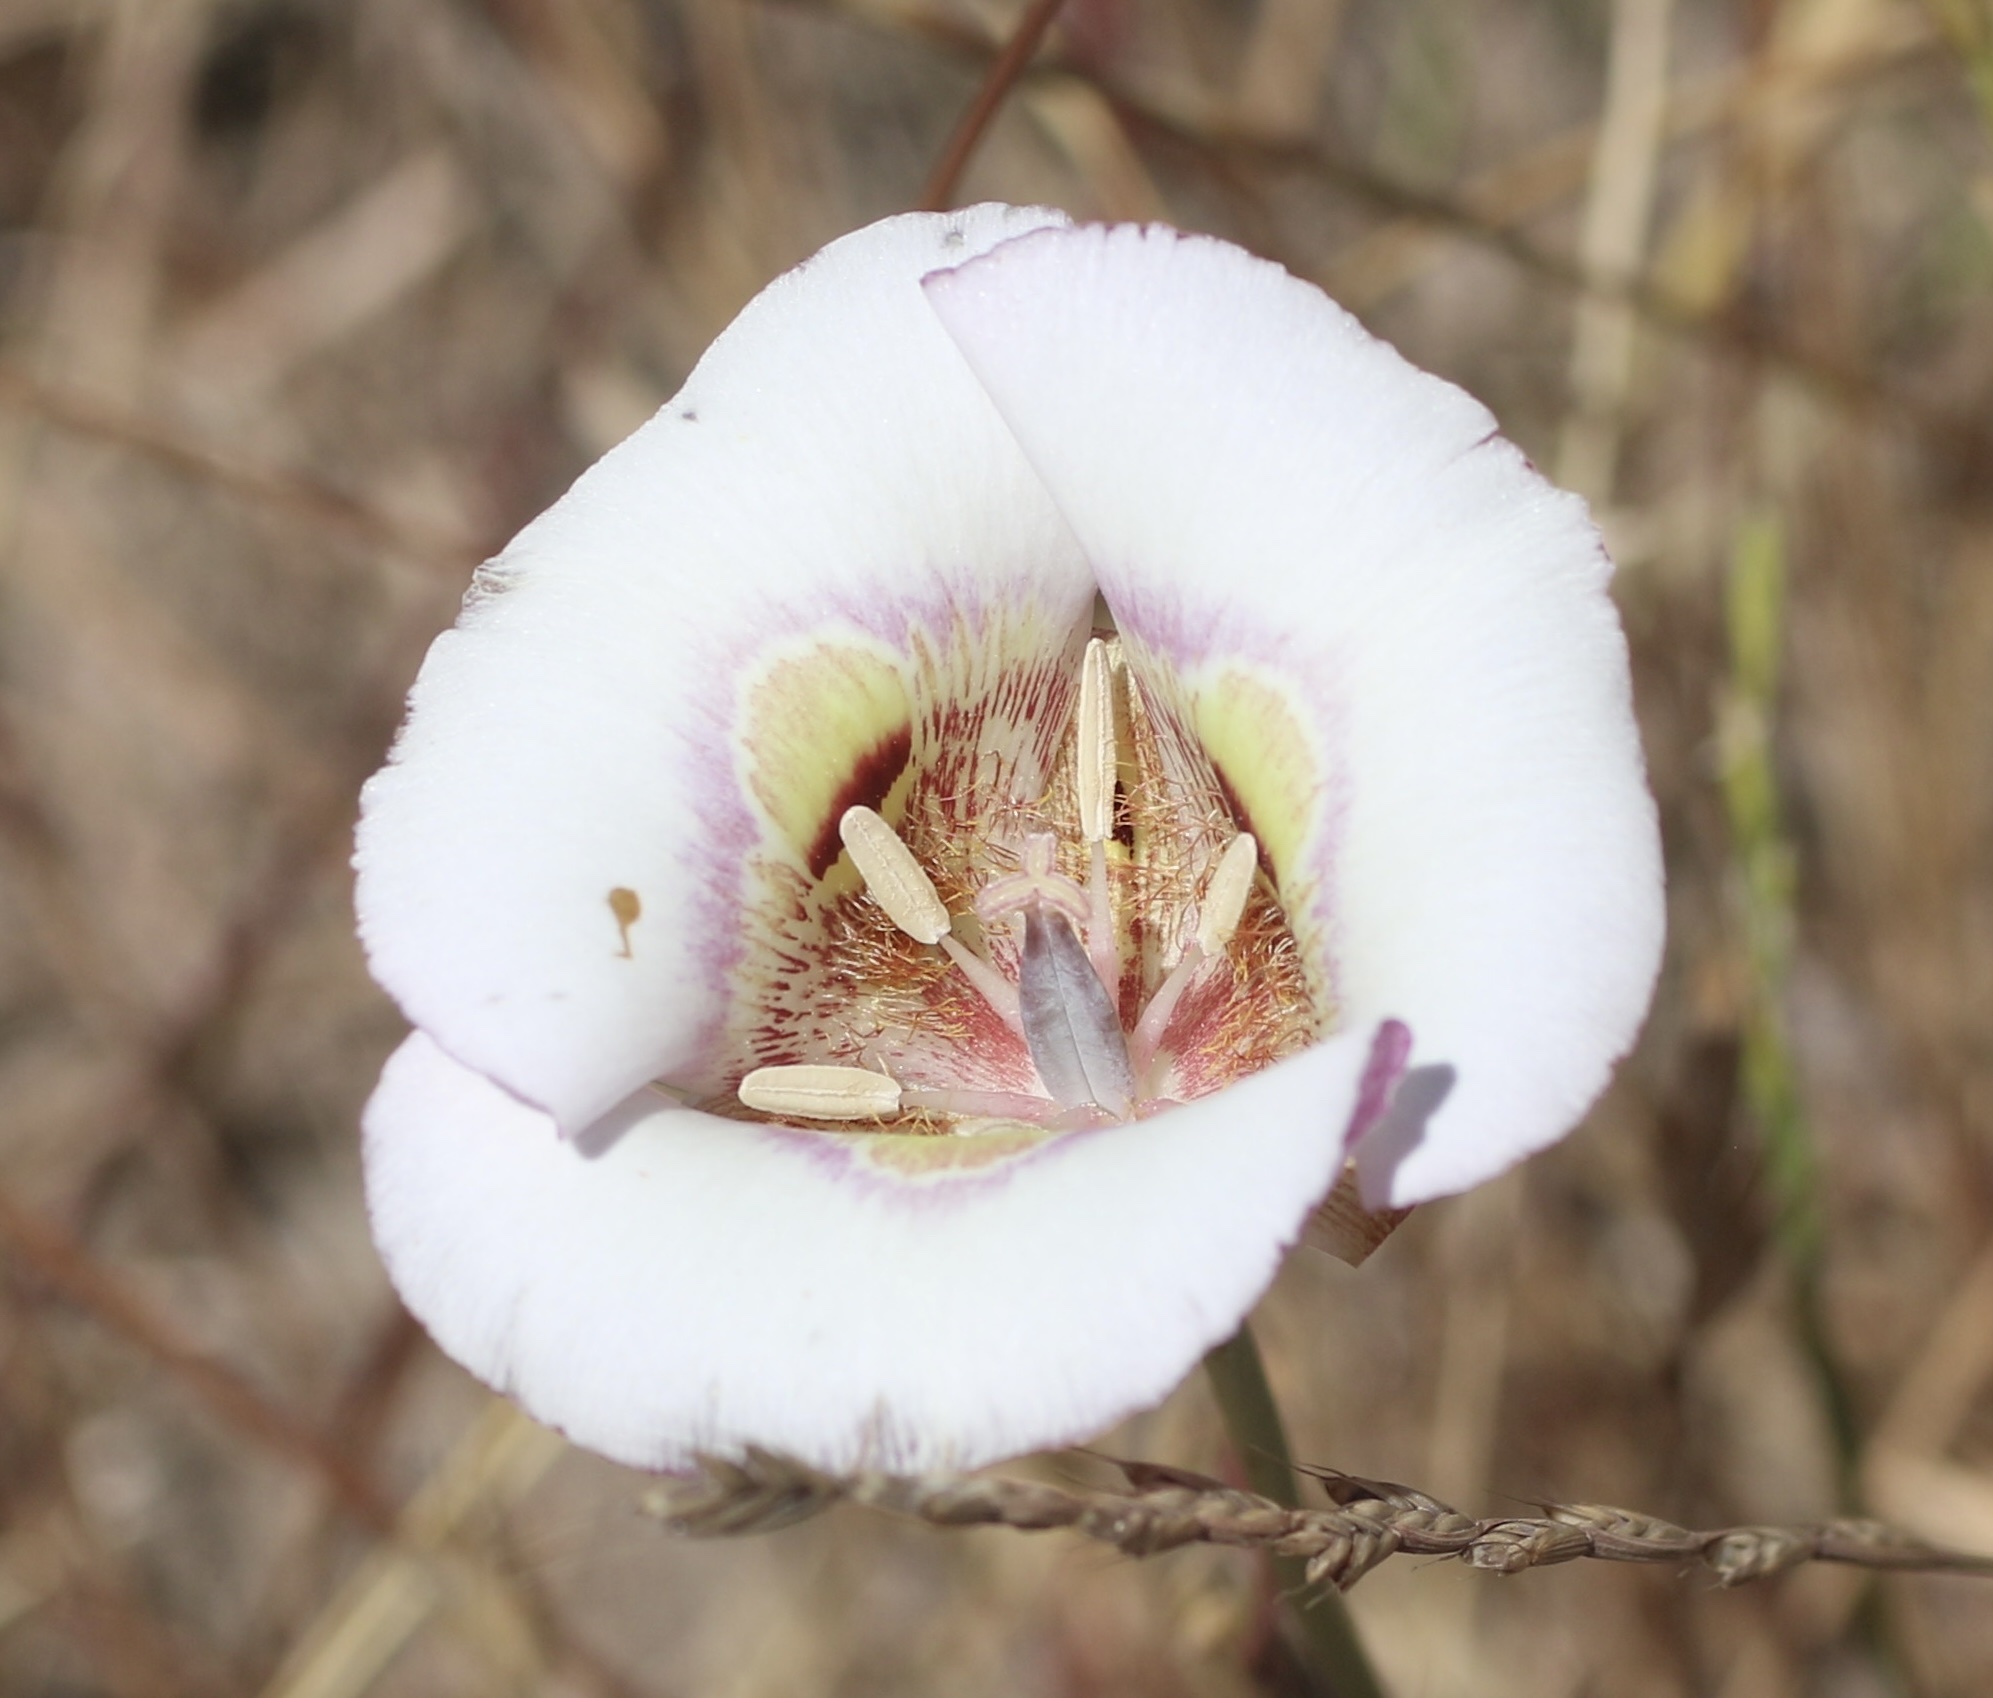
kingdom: Plantae
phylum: Tracheophyta
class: Liliopsida
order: Liliales
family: Liliaceae
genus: Calochortus
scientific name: Calochortus argillosus
